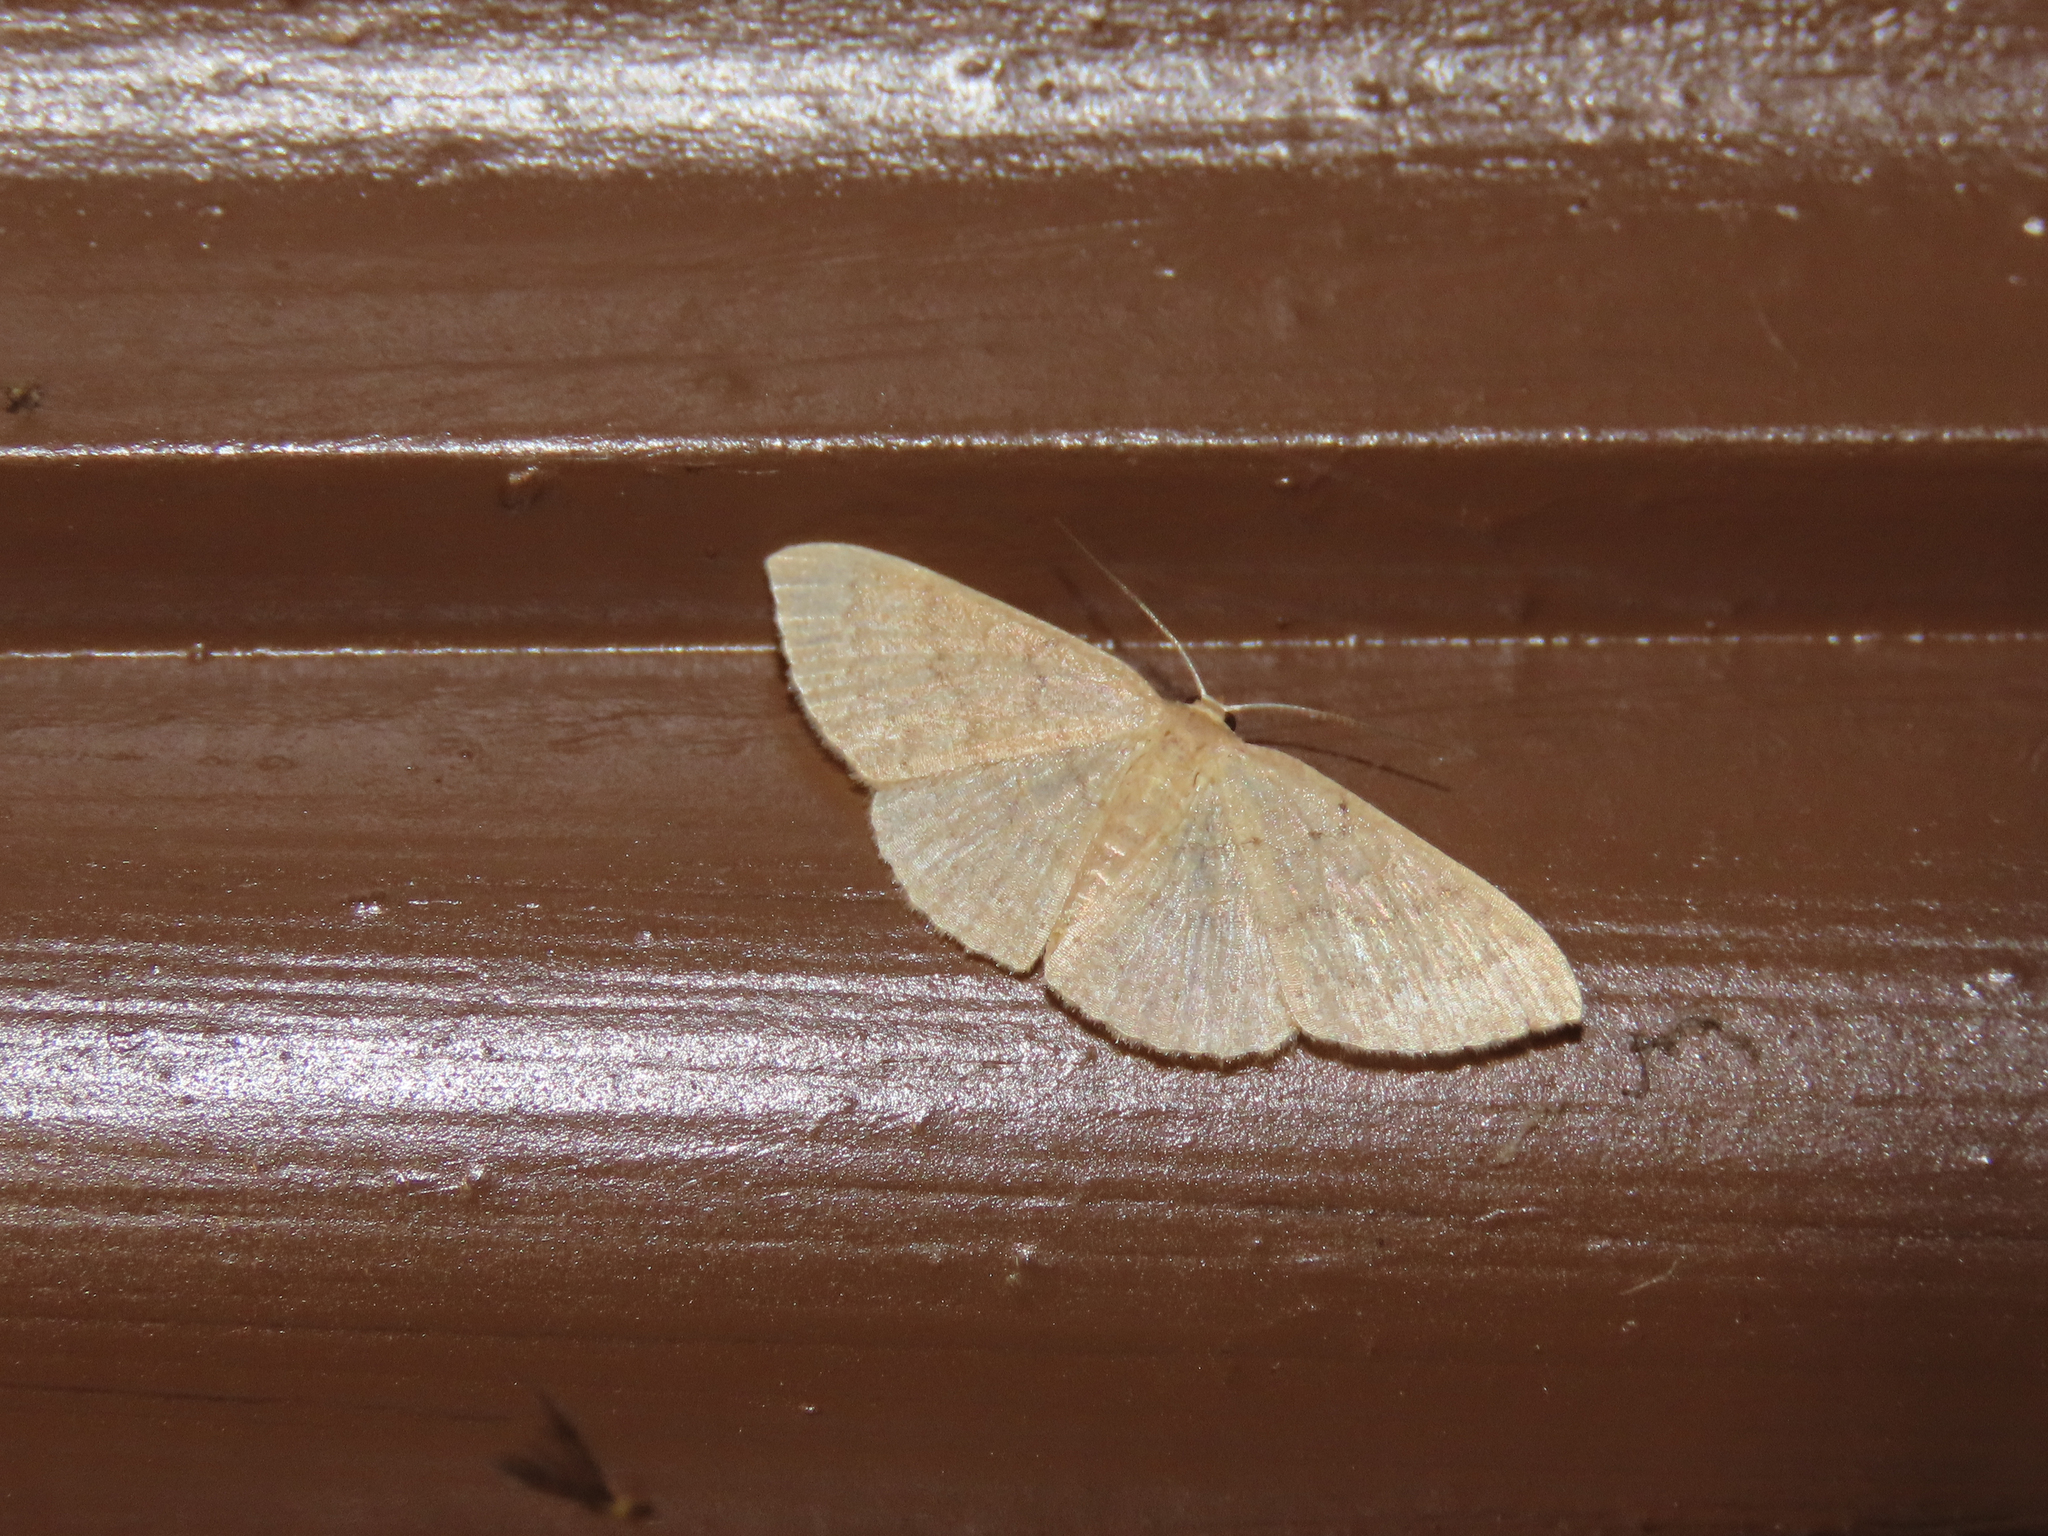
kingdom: Animalia
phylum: Arthropoda
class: Insecta
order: Lepidoptera
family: Geometridae
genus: Pleuroprucha
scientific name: Pleuroprucha insulsaria
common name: Common tan wave
